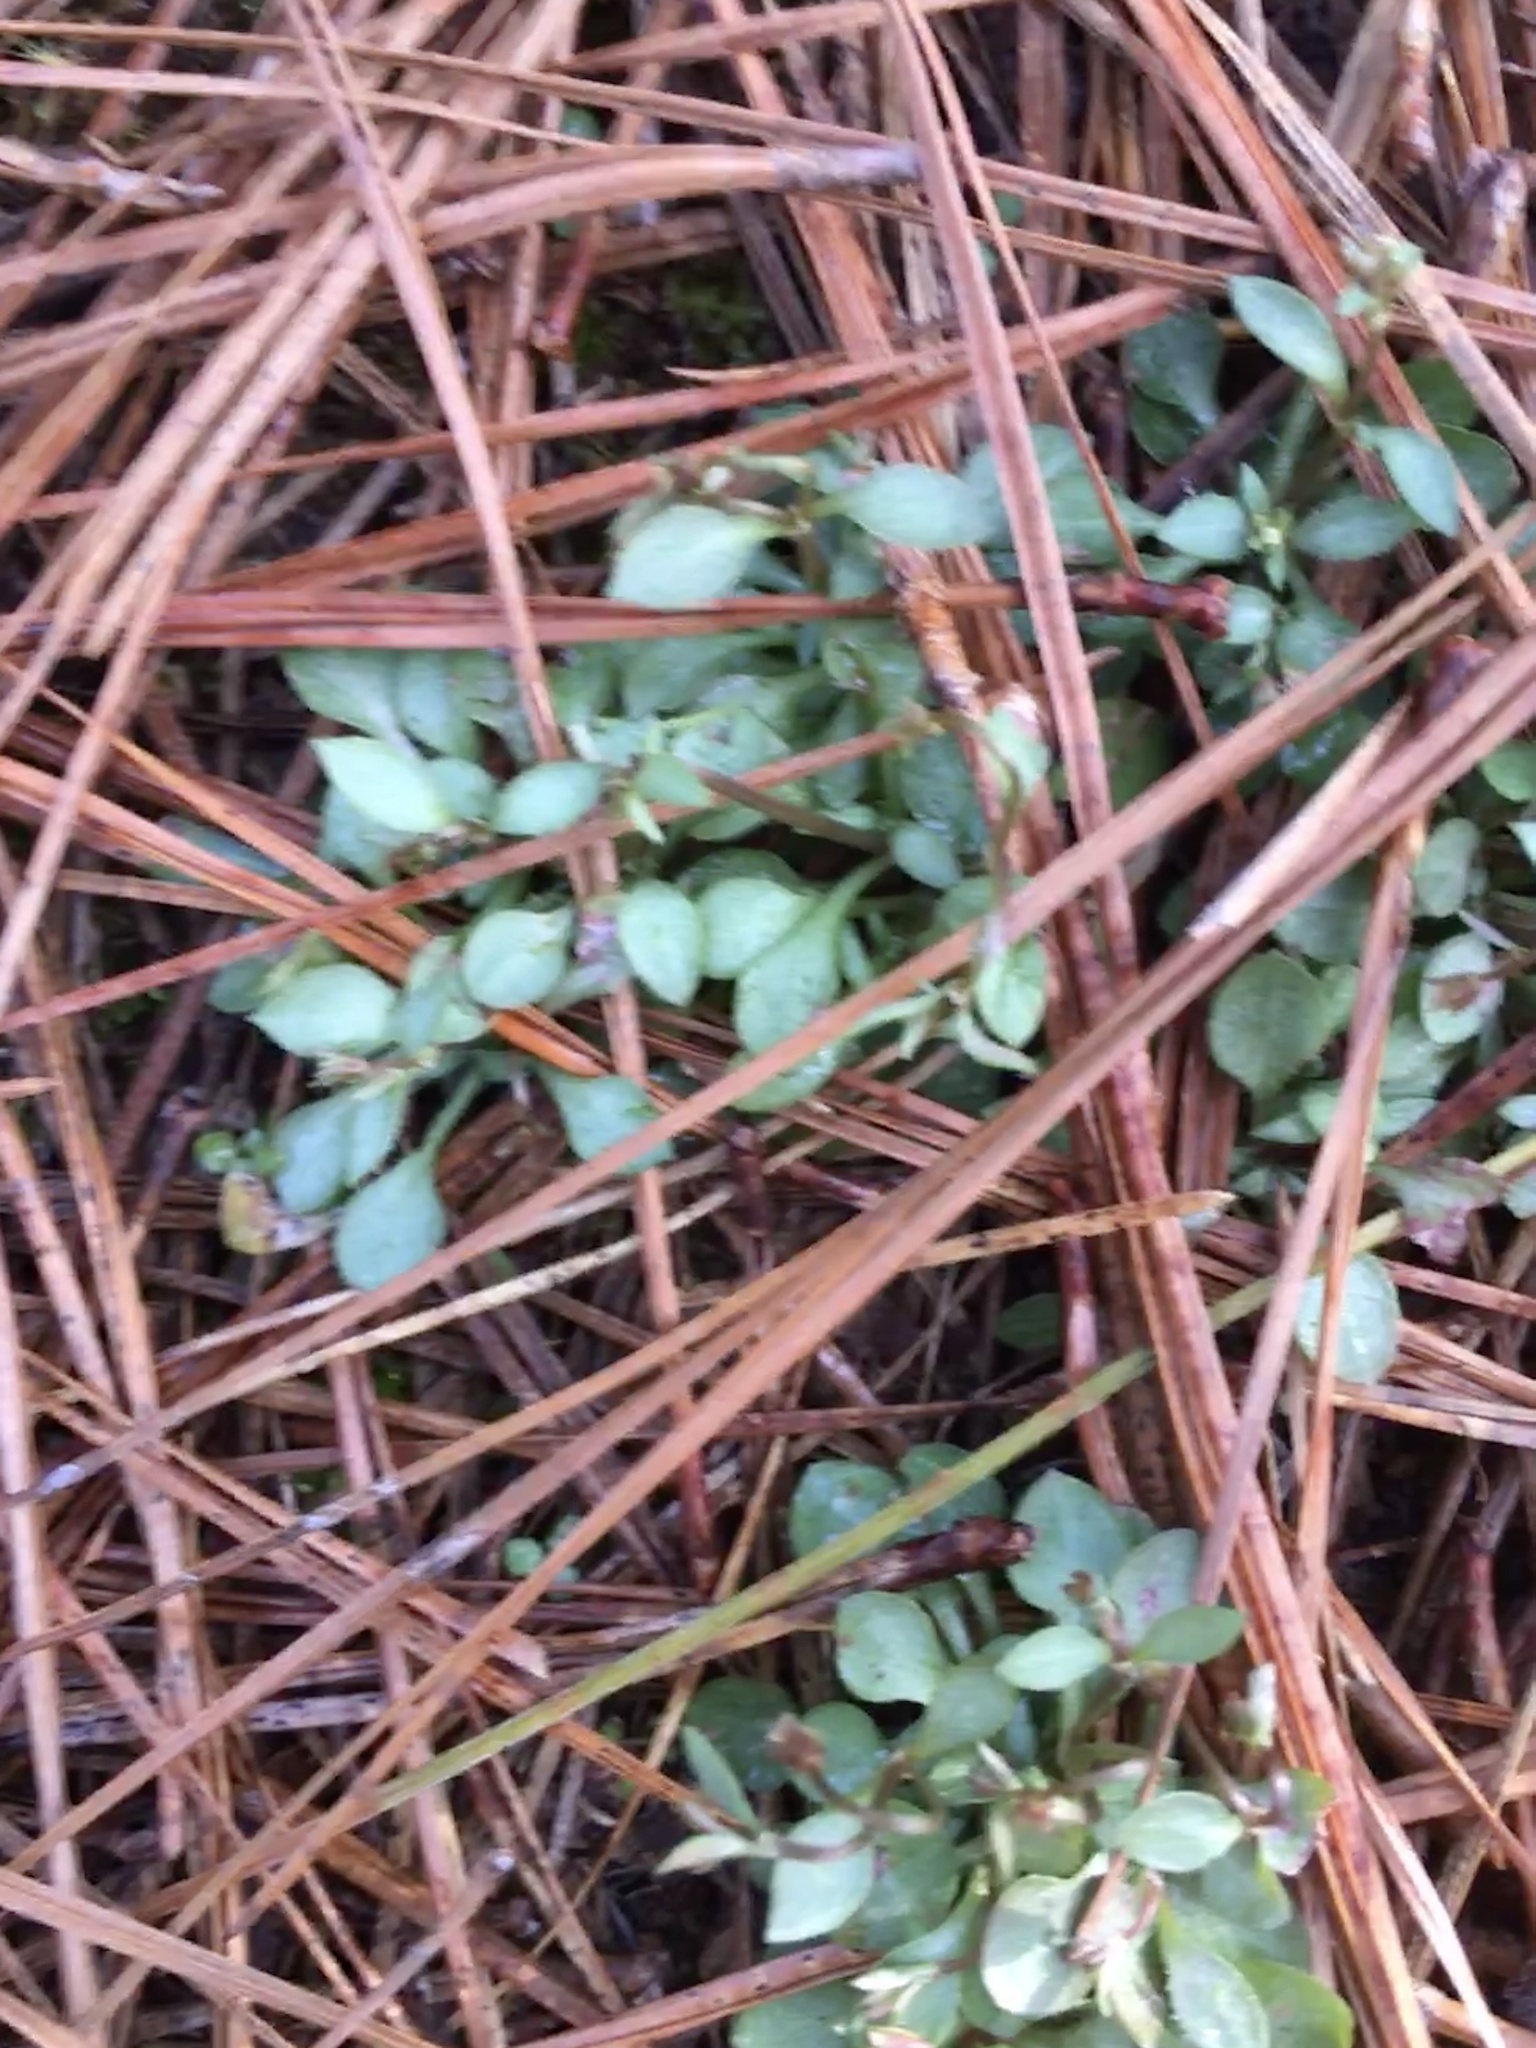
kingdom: Plantae
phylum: Tracheophyta
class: Magnoliopsida
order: Gentianales
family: Rubiaceae
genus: Houstonia
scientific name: Houstonia caerulea
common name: Bluets
